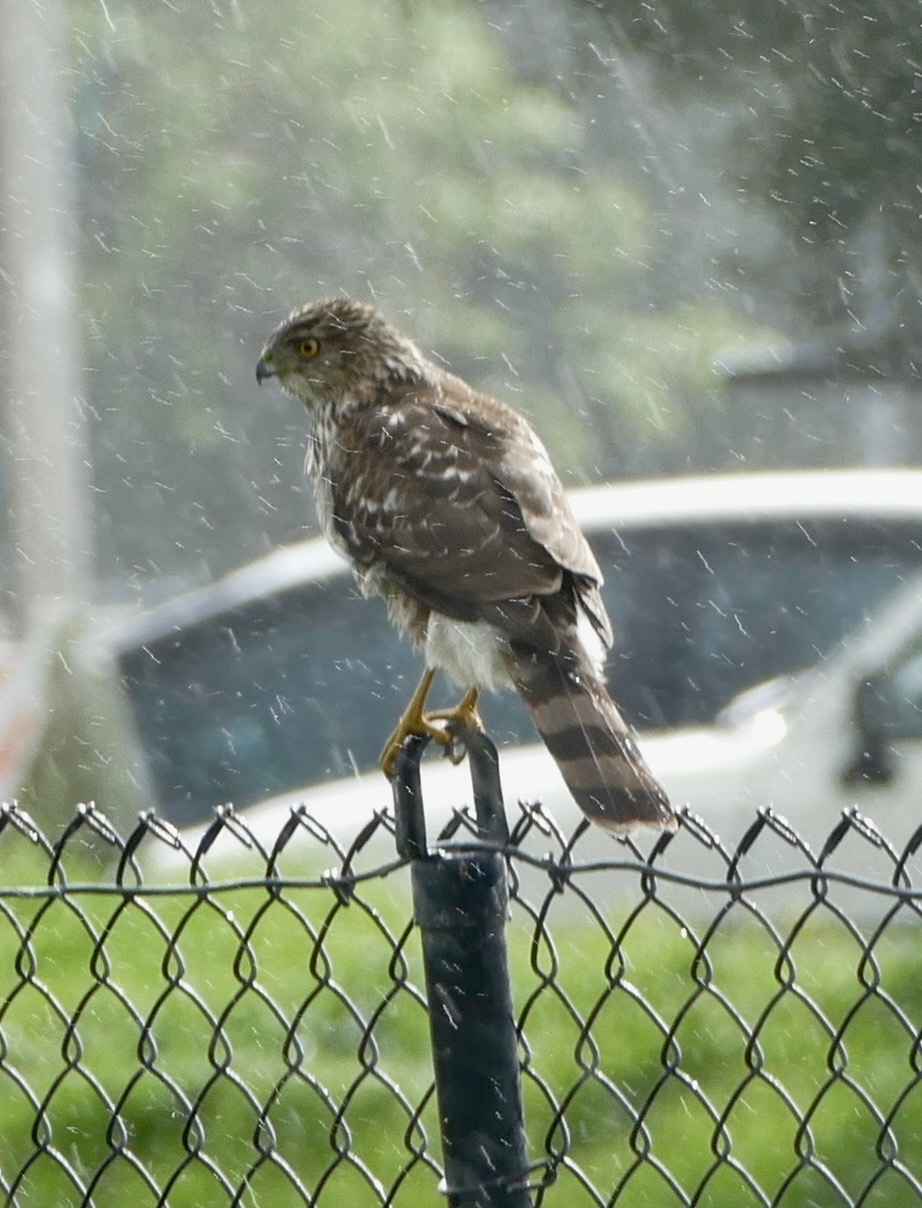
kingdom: Animalia
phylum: Chordata
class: Aves
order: Accipitriformes
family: Accipitridae
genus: Accipiter
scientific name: Accipiter cooperii
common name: Cooper's hawk
